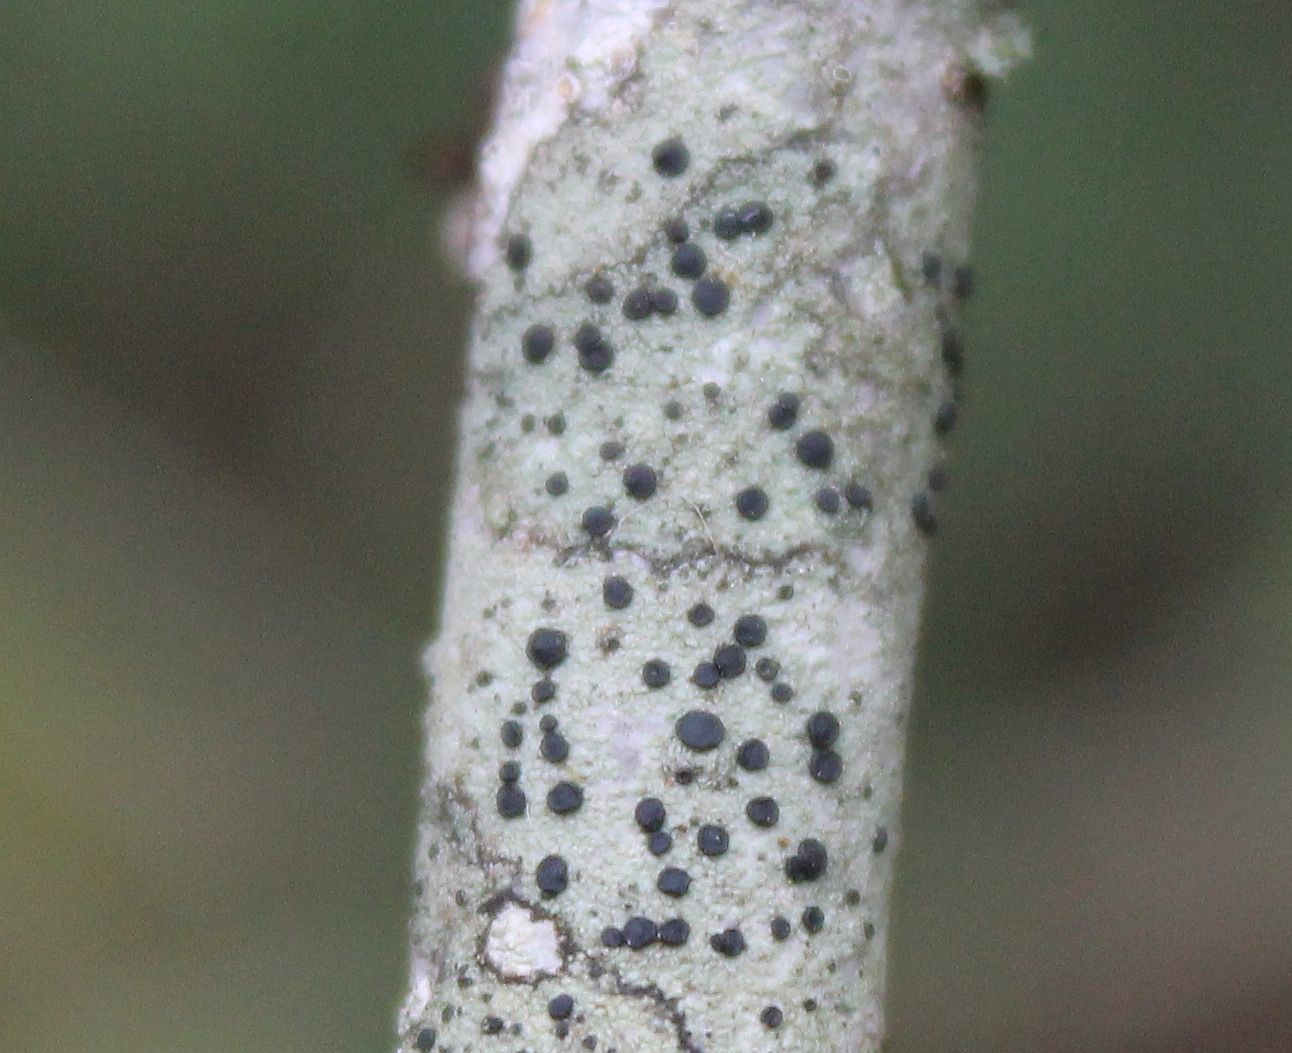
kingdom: Fungi
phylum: Ascomycota
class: Lecanoromycetes
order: Lecanorales
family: Lecanoraceae
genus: Lecidella
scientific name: Lecidella elaeochroma
